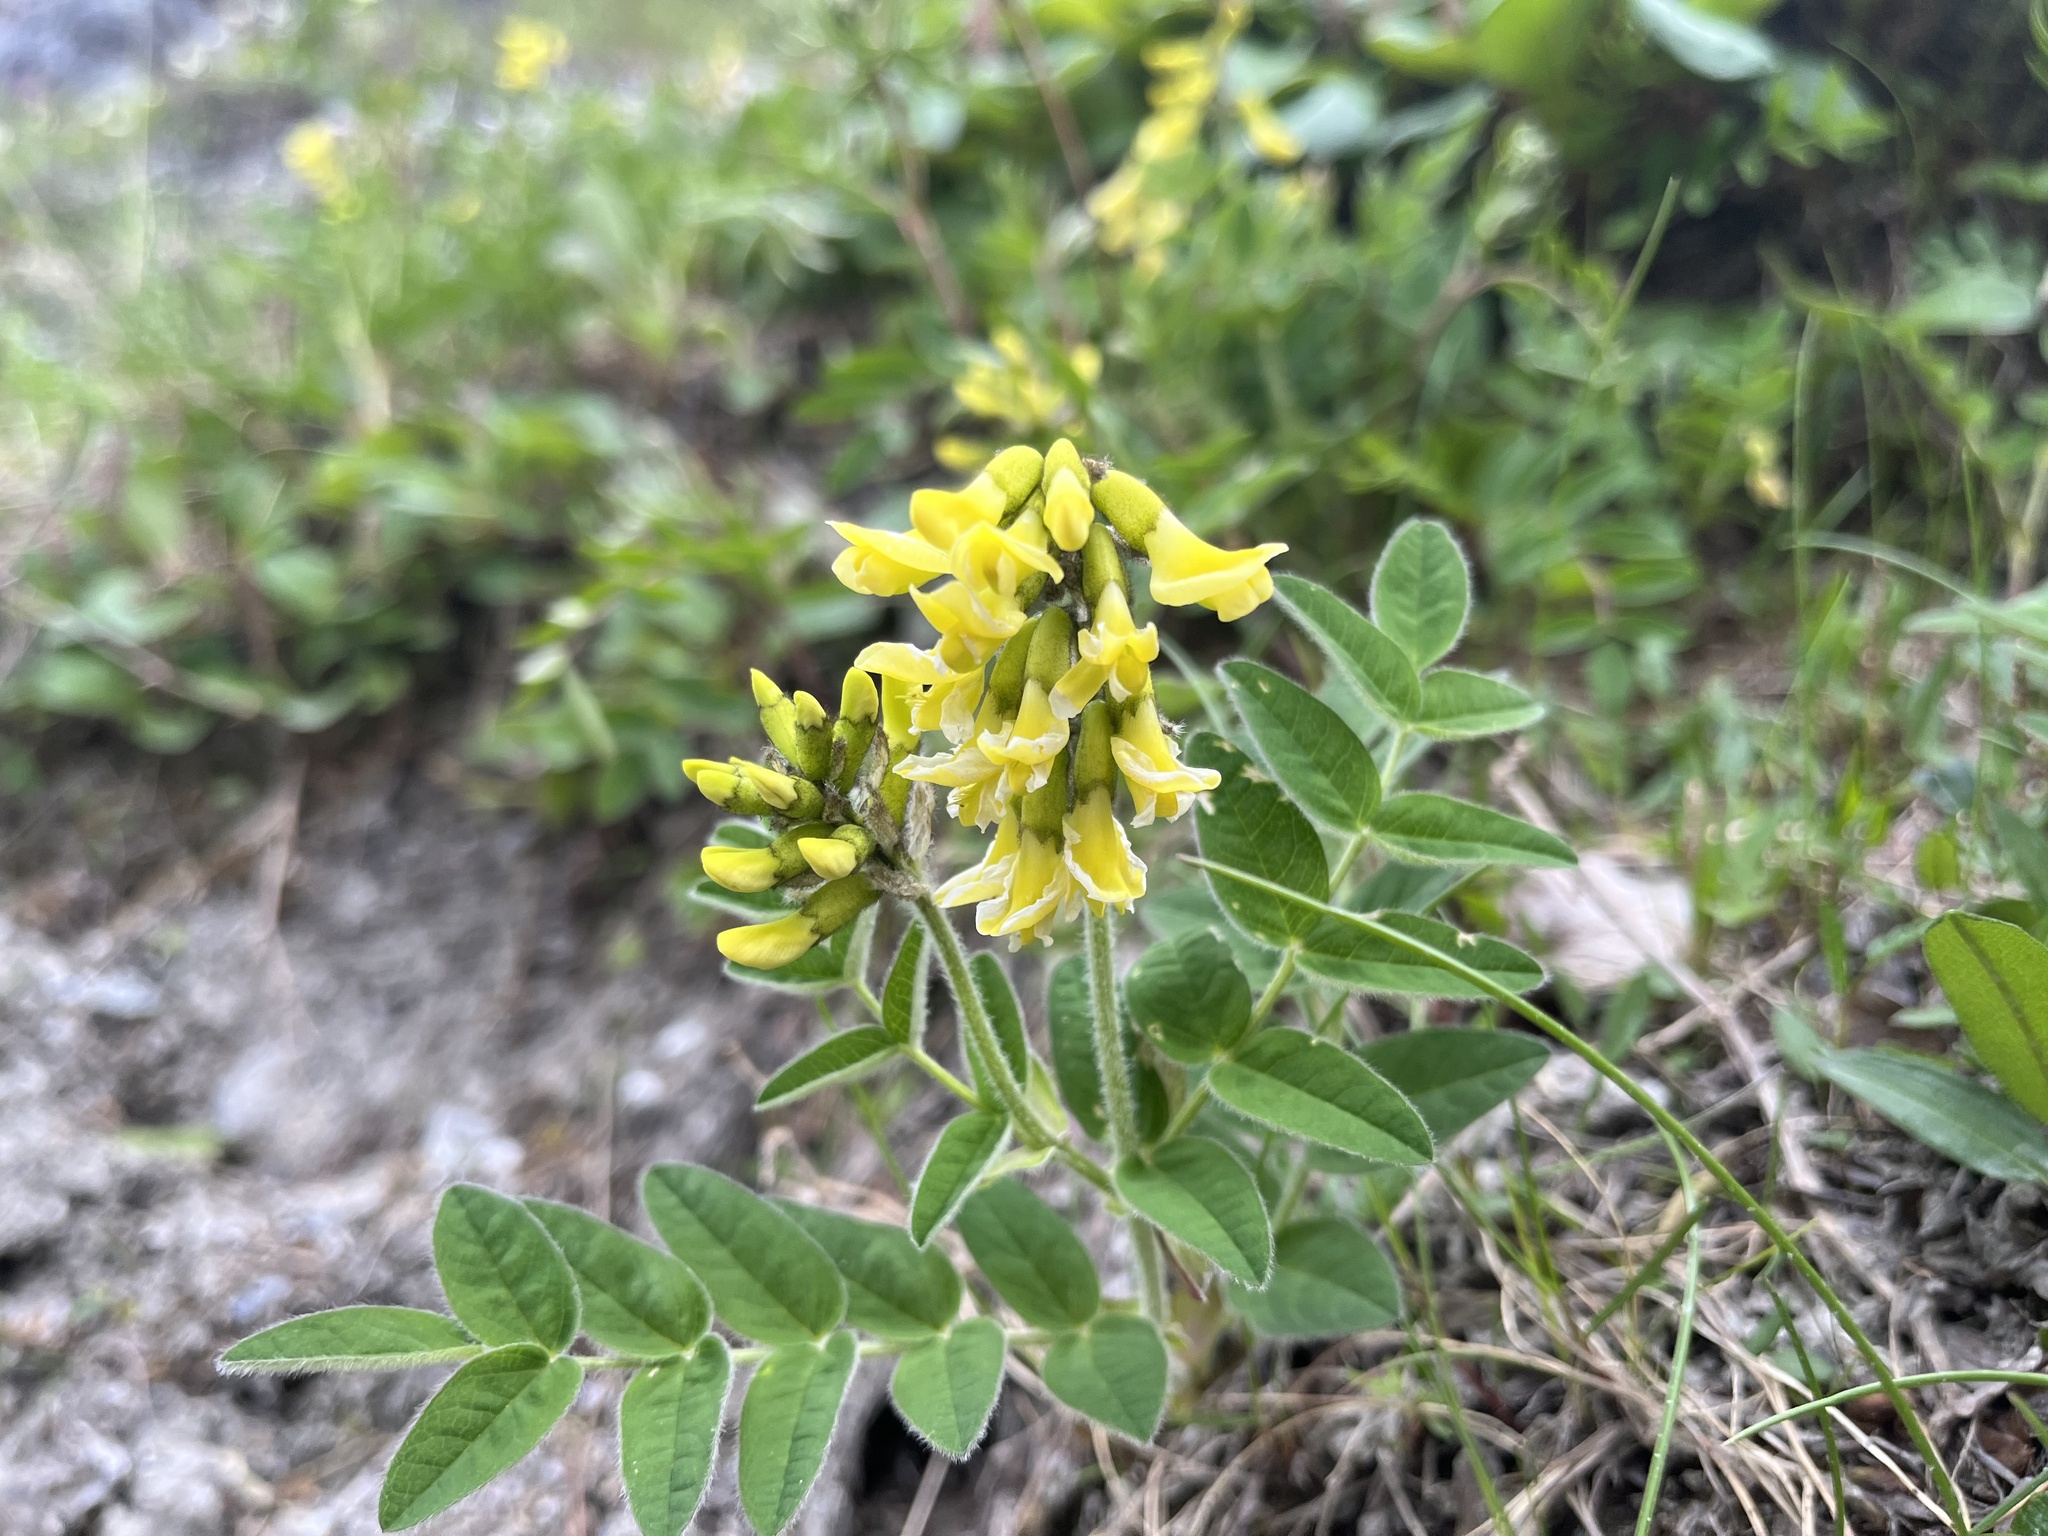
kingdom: Plantae
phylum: Tracheophyta
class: Magnoliopsida
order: Fabales
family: Fabaceae
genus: Astragalus
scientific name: Astragalus umbellatus
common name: Tundra milk-vetch
